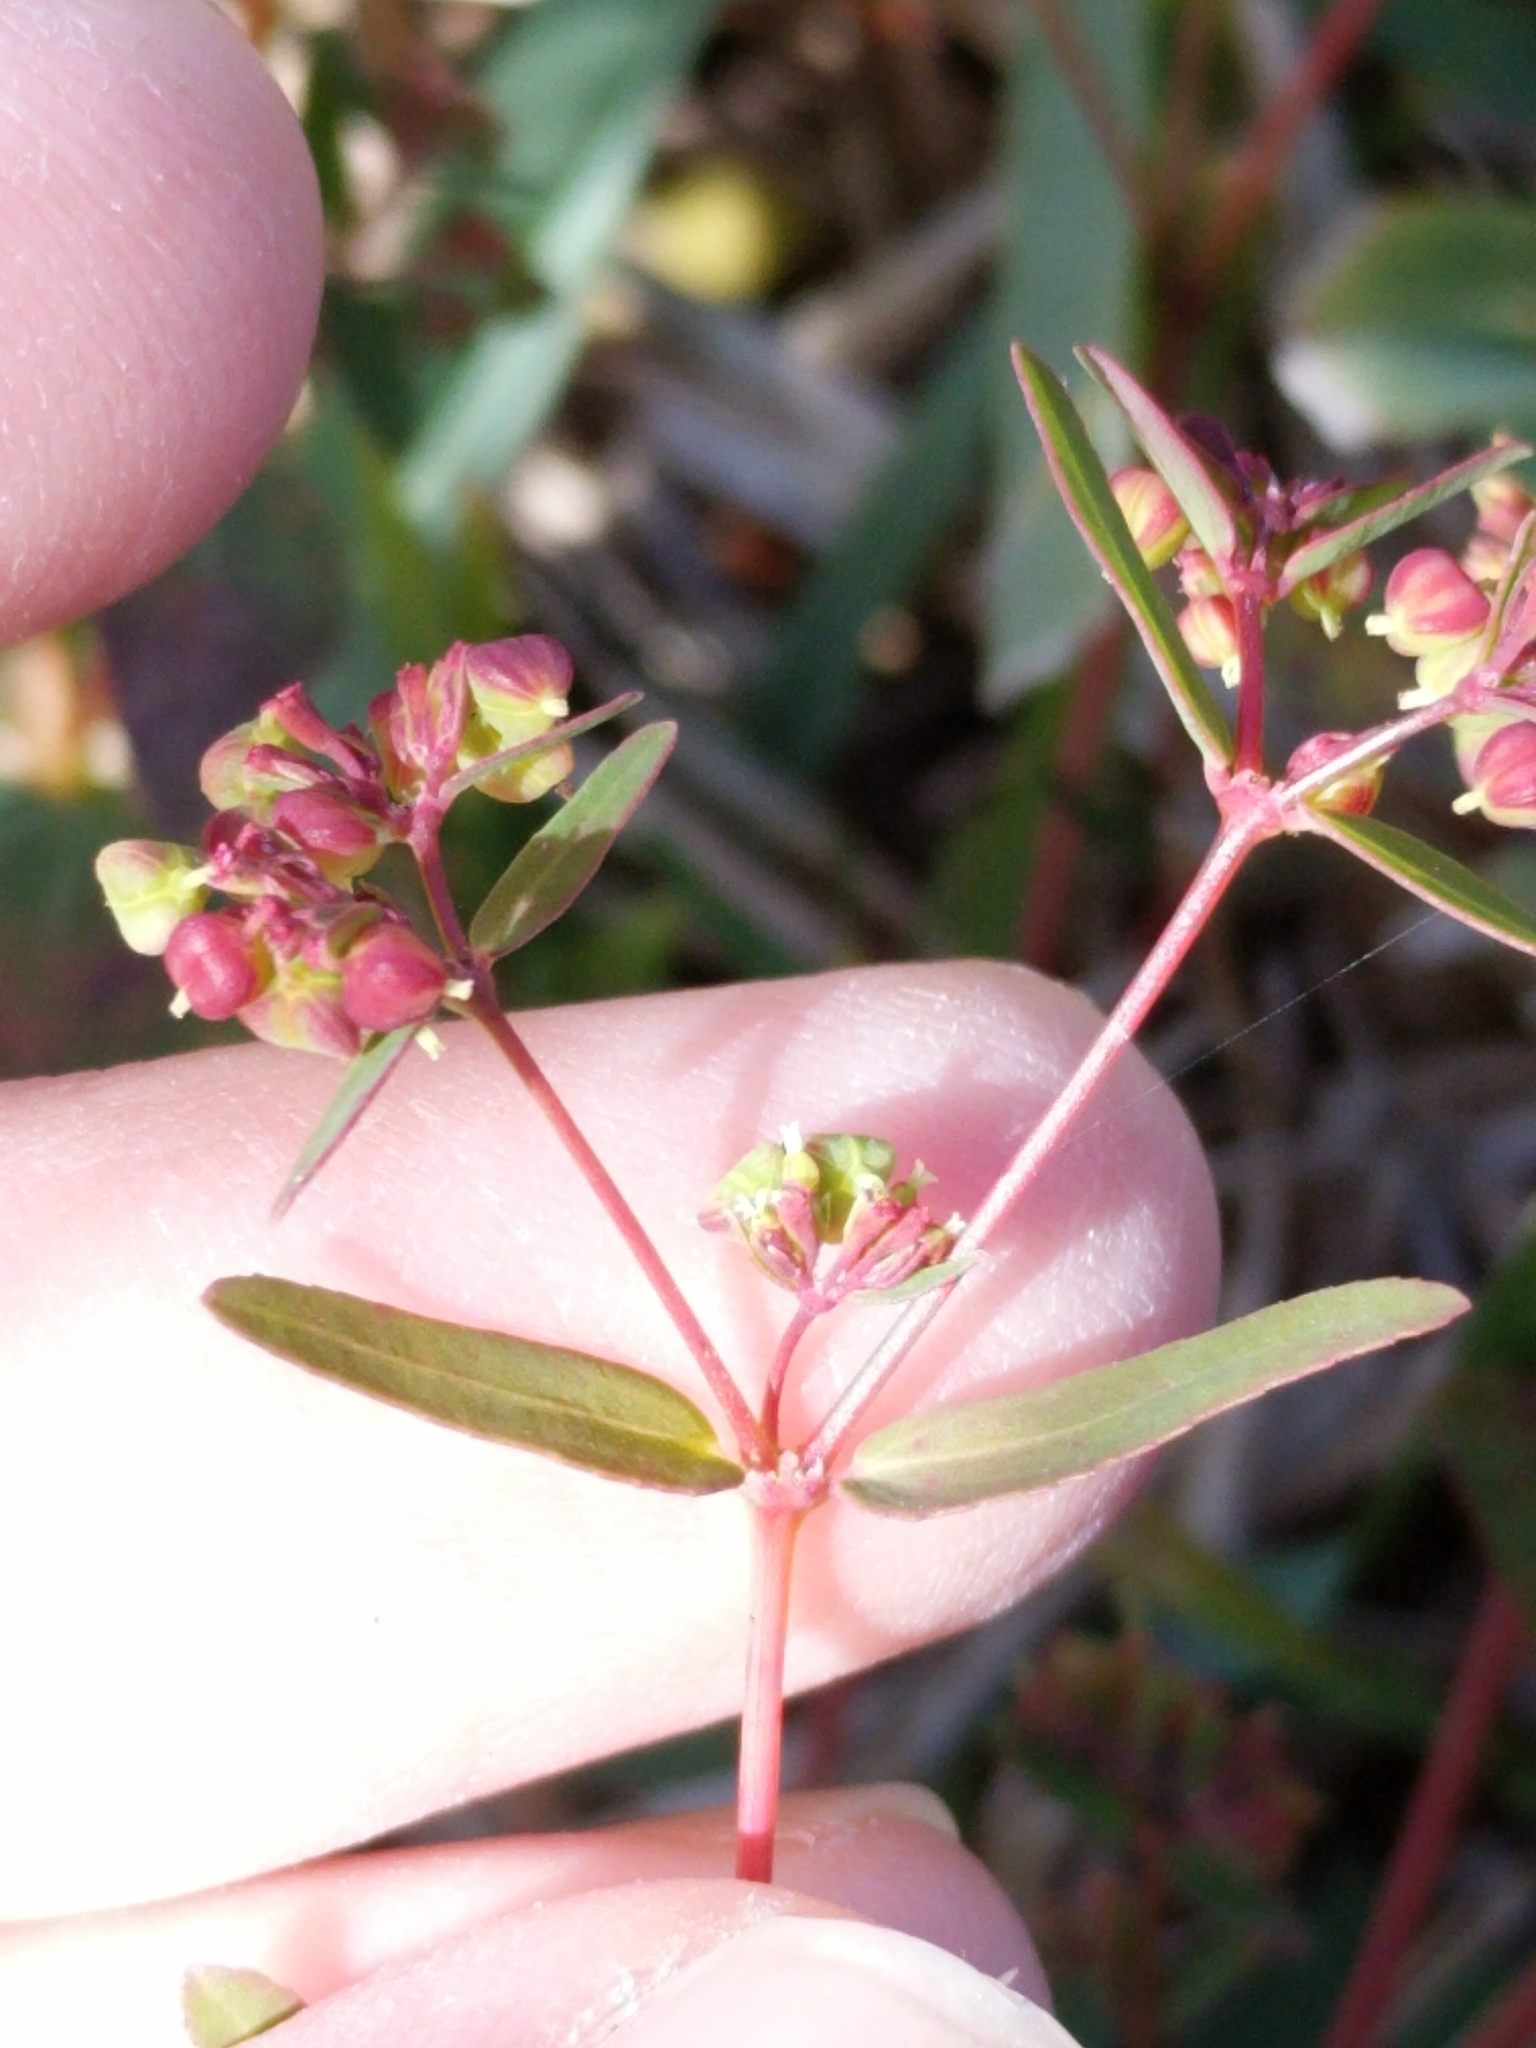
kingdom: Plantae
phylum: Tracheophyta
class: Magnoliopsida
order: Malpighiales
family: Euphorbiaceae
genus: Euphorbia
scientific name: Euphorbia hyssopifolia
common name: Hyssopleaf sandmat
